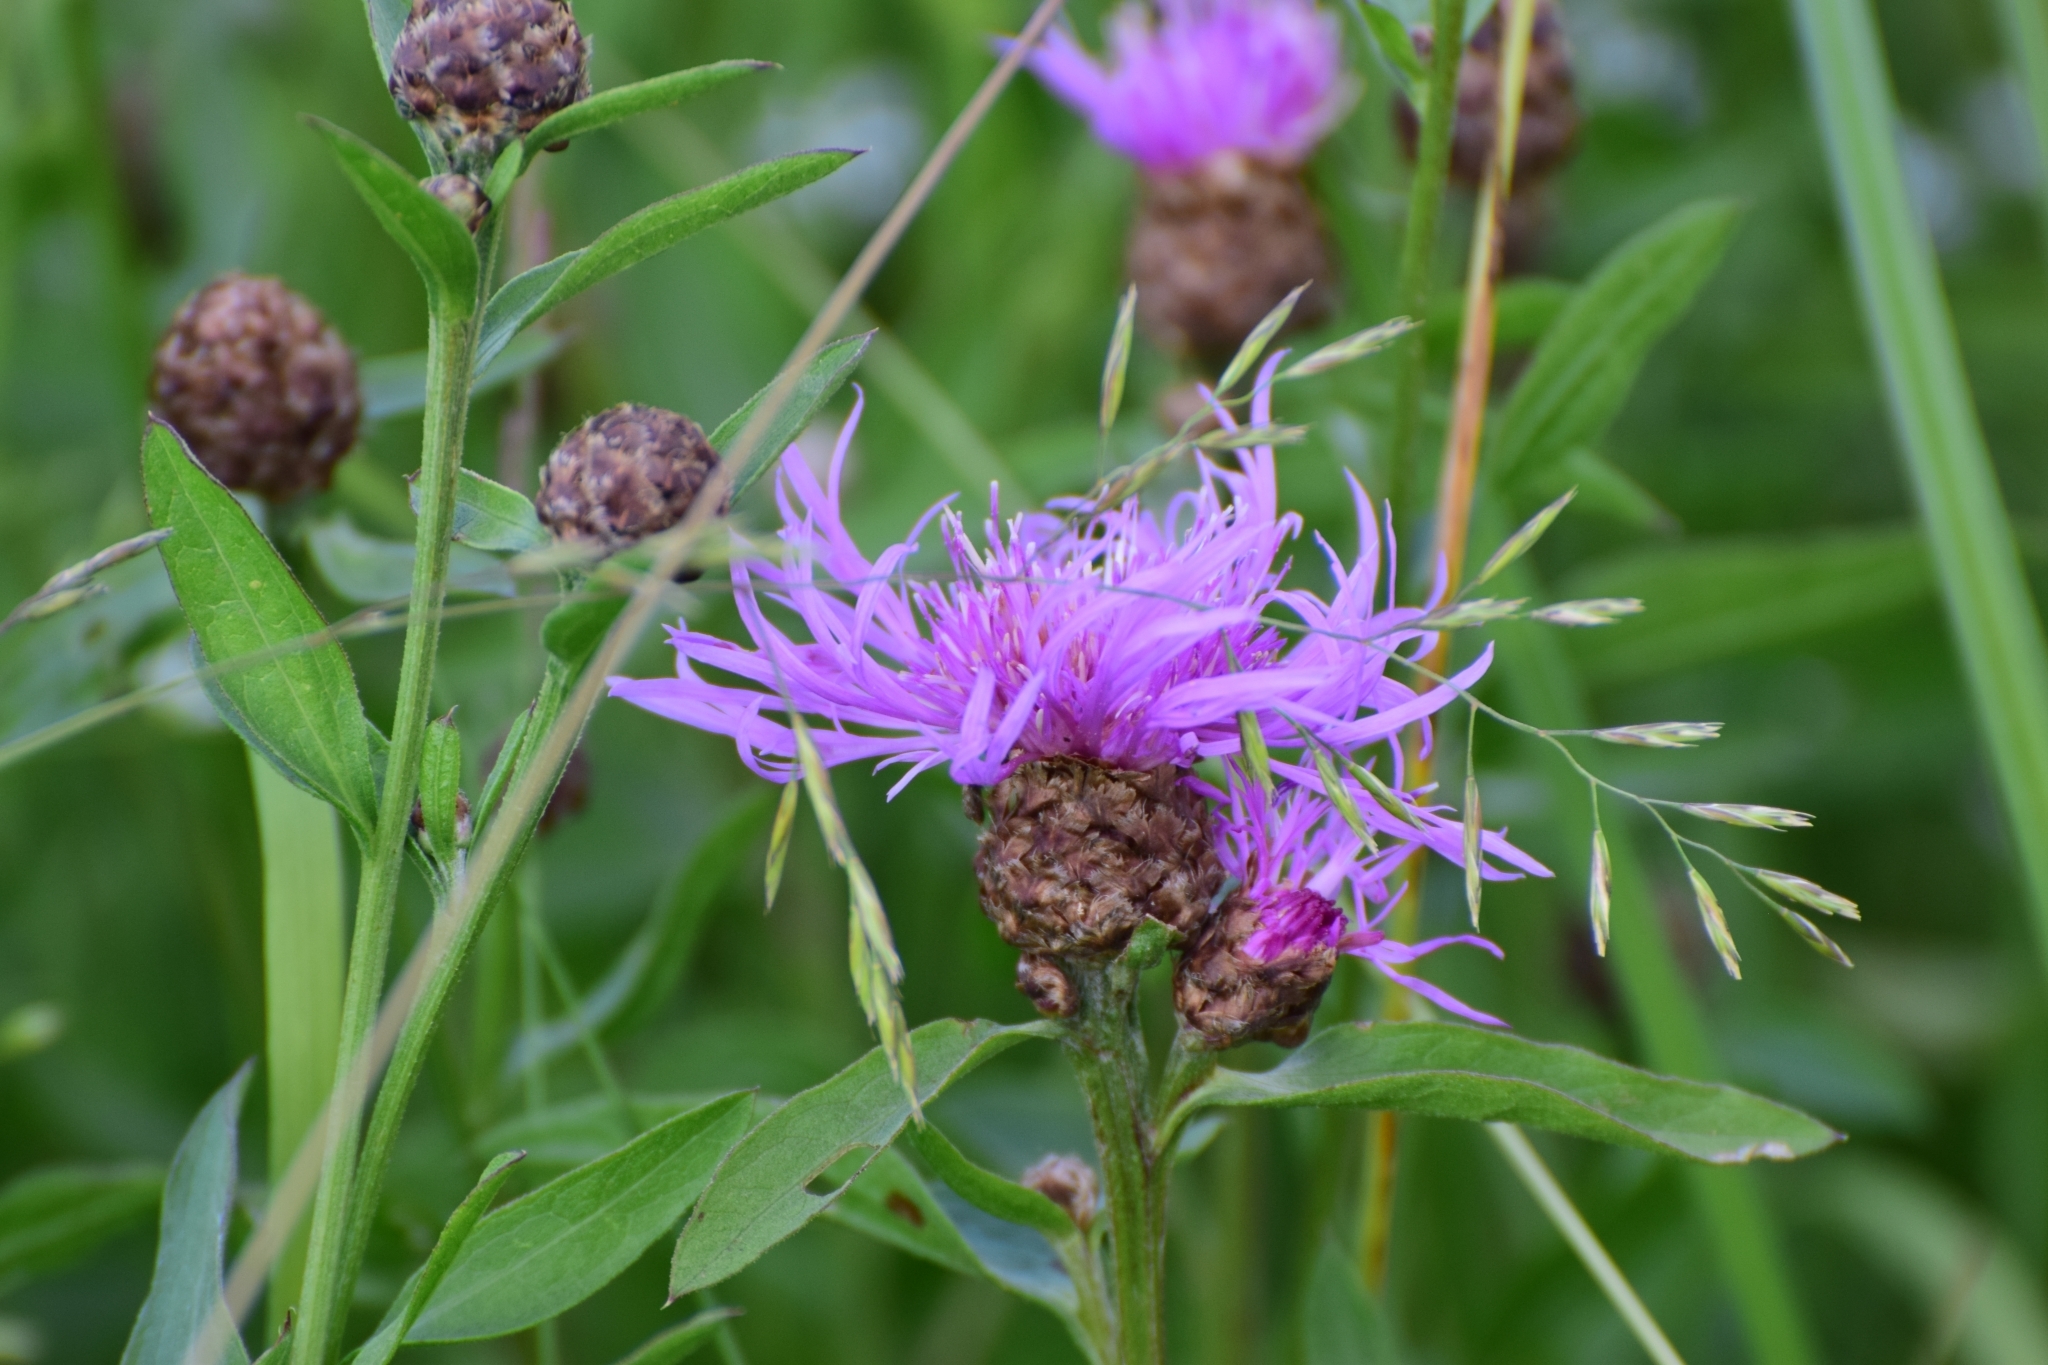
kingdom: Plantae
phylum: Tracheophyta
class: Magnoliopsida
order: Asterales
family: Asteraceae
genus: Centaurea
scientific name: Centaurea jacea
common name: Brown knapweed
